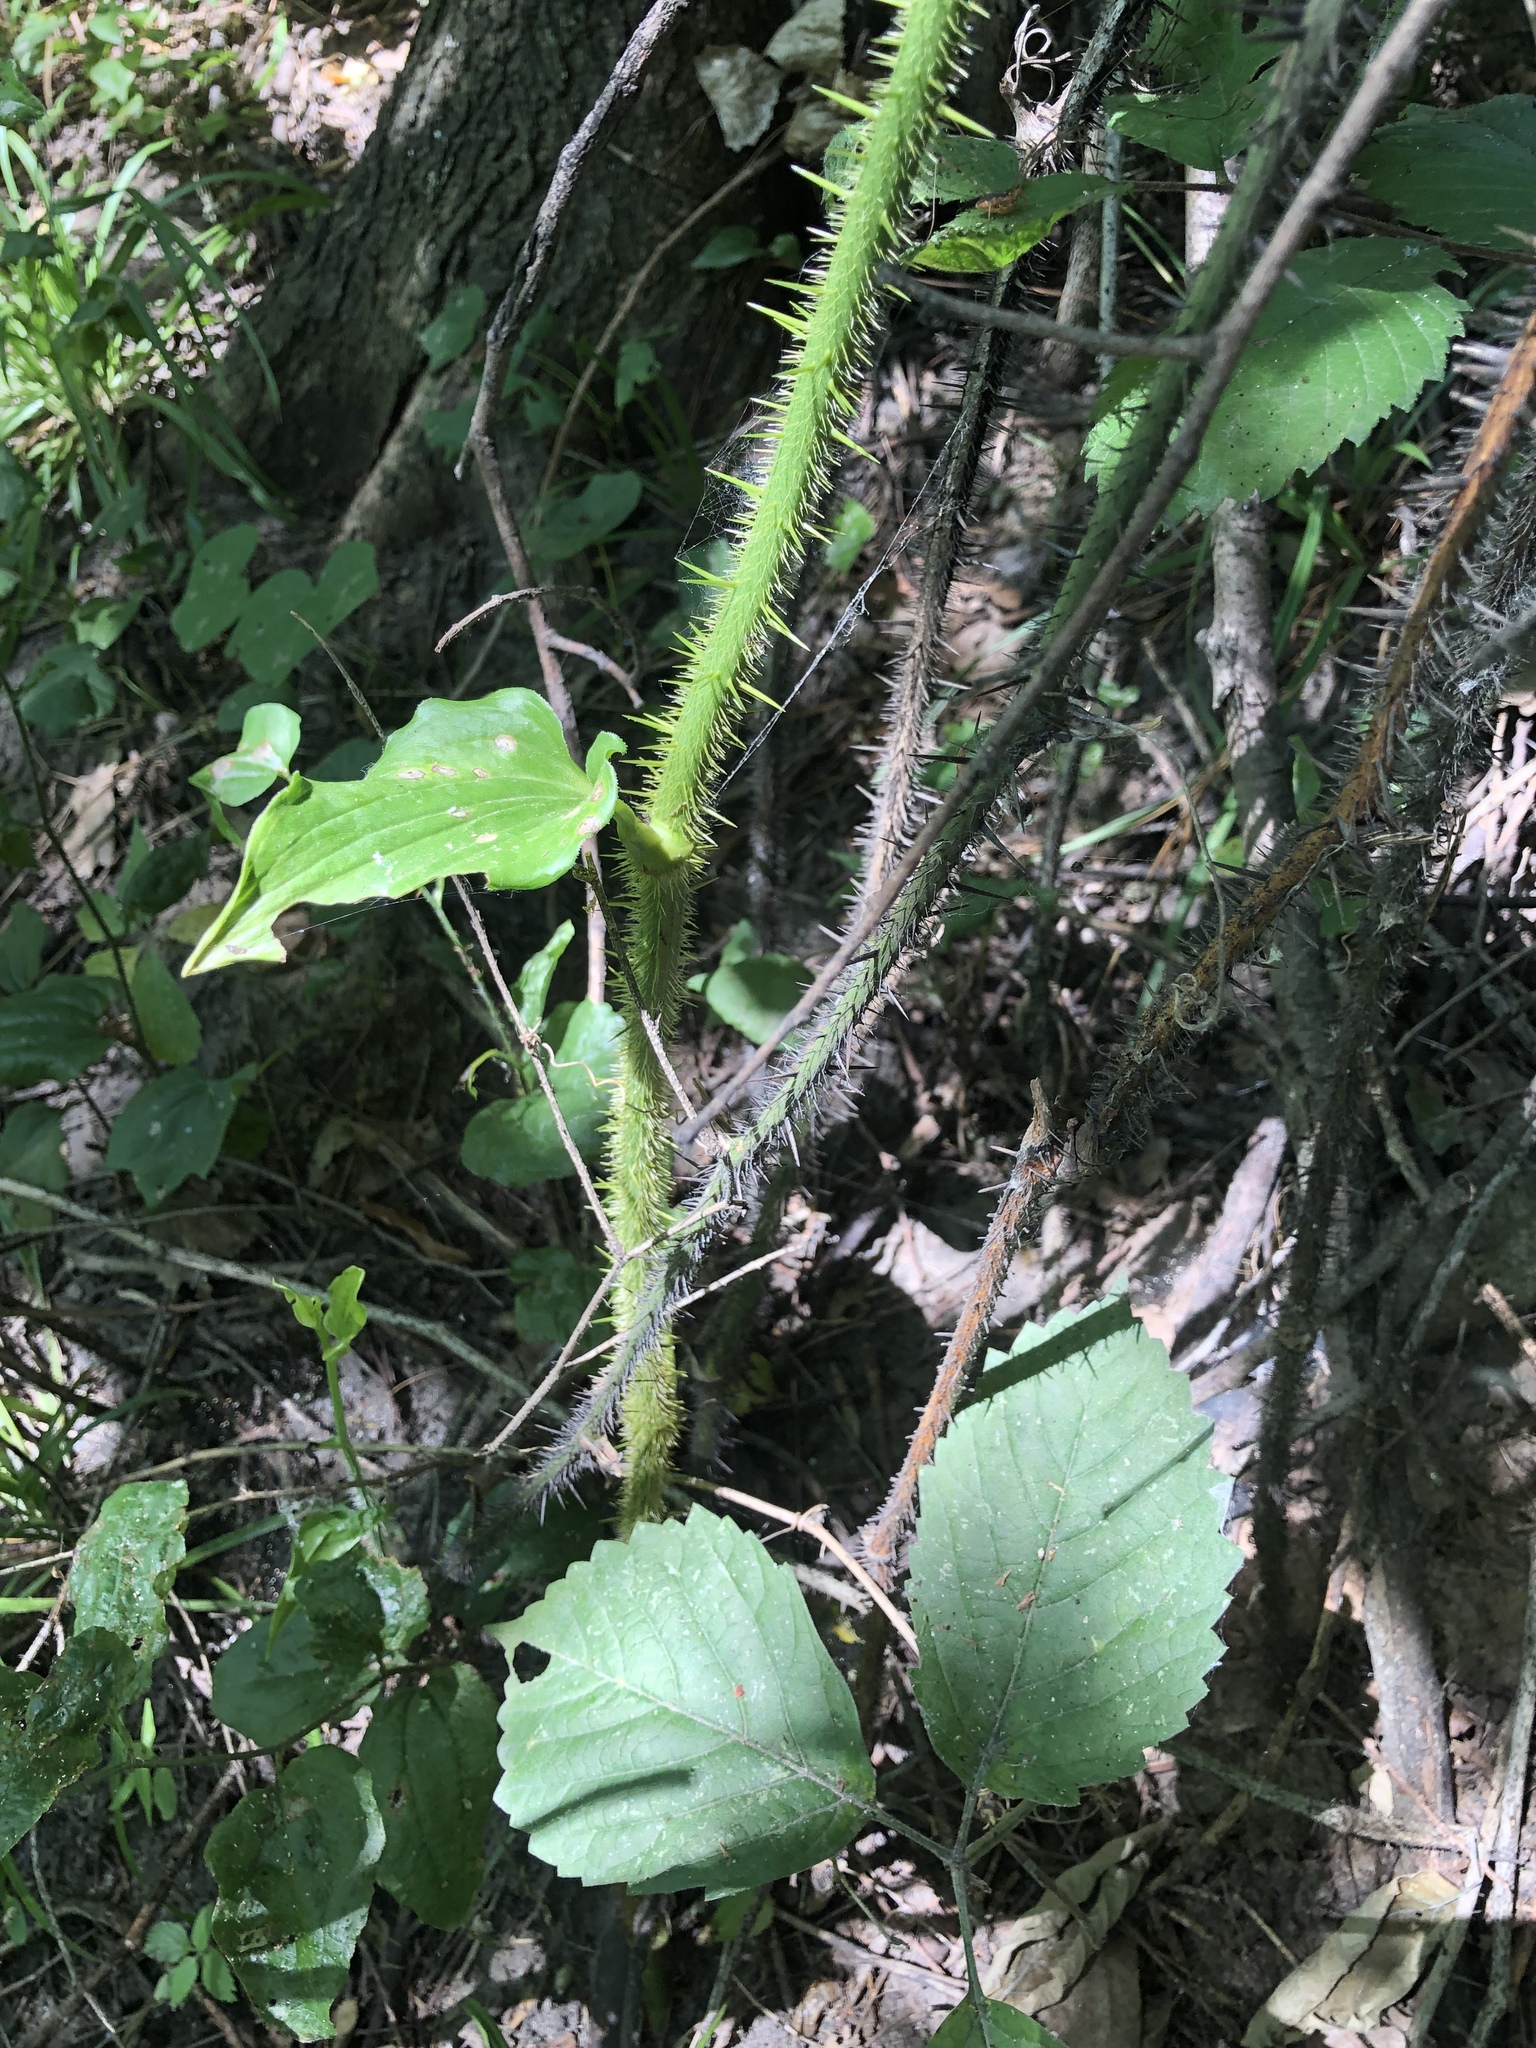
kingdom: Plantae
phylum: Tracheophyta
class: Liliopsida
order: Liliales
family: Smilacaceae
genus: Smilax
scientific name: Smilax tamnoides
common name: Hellfetter
